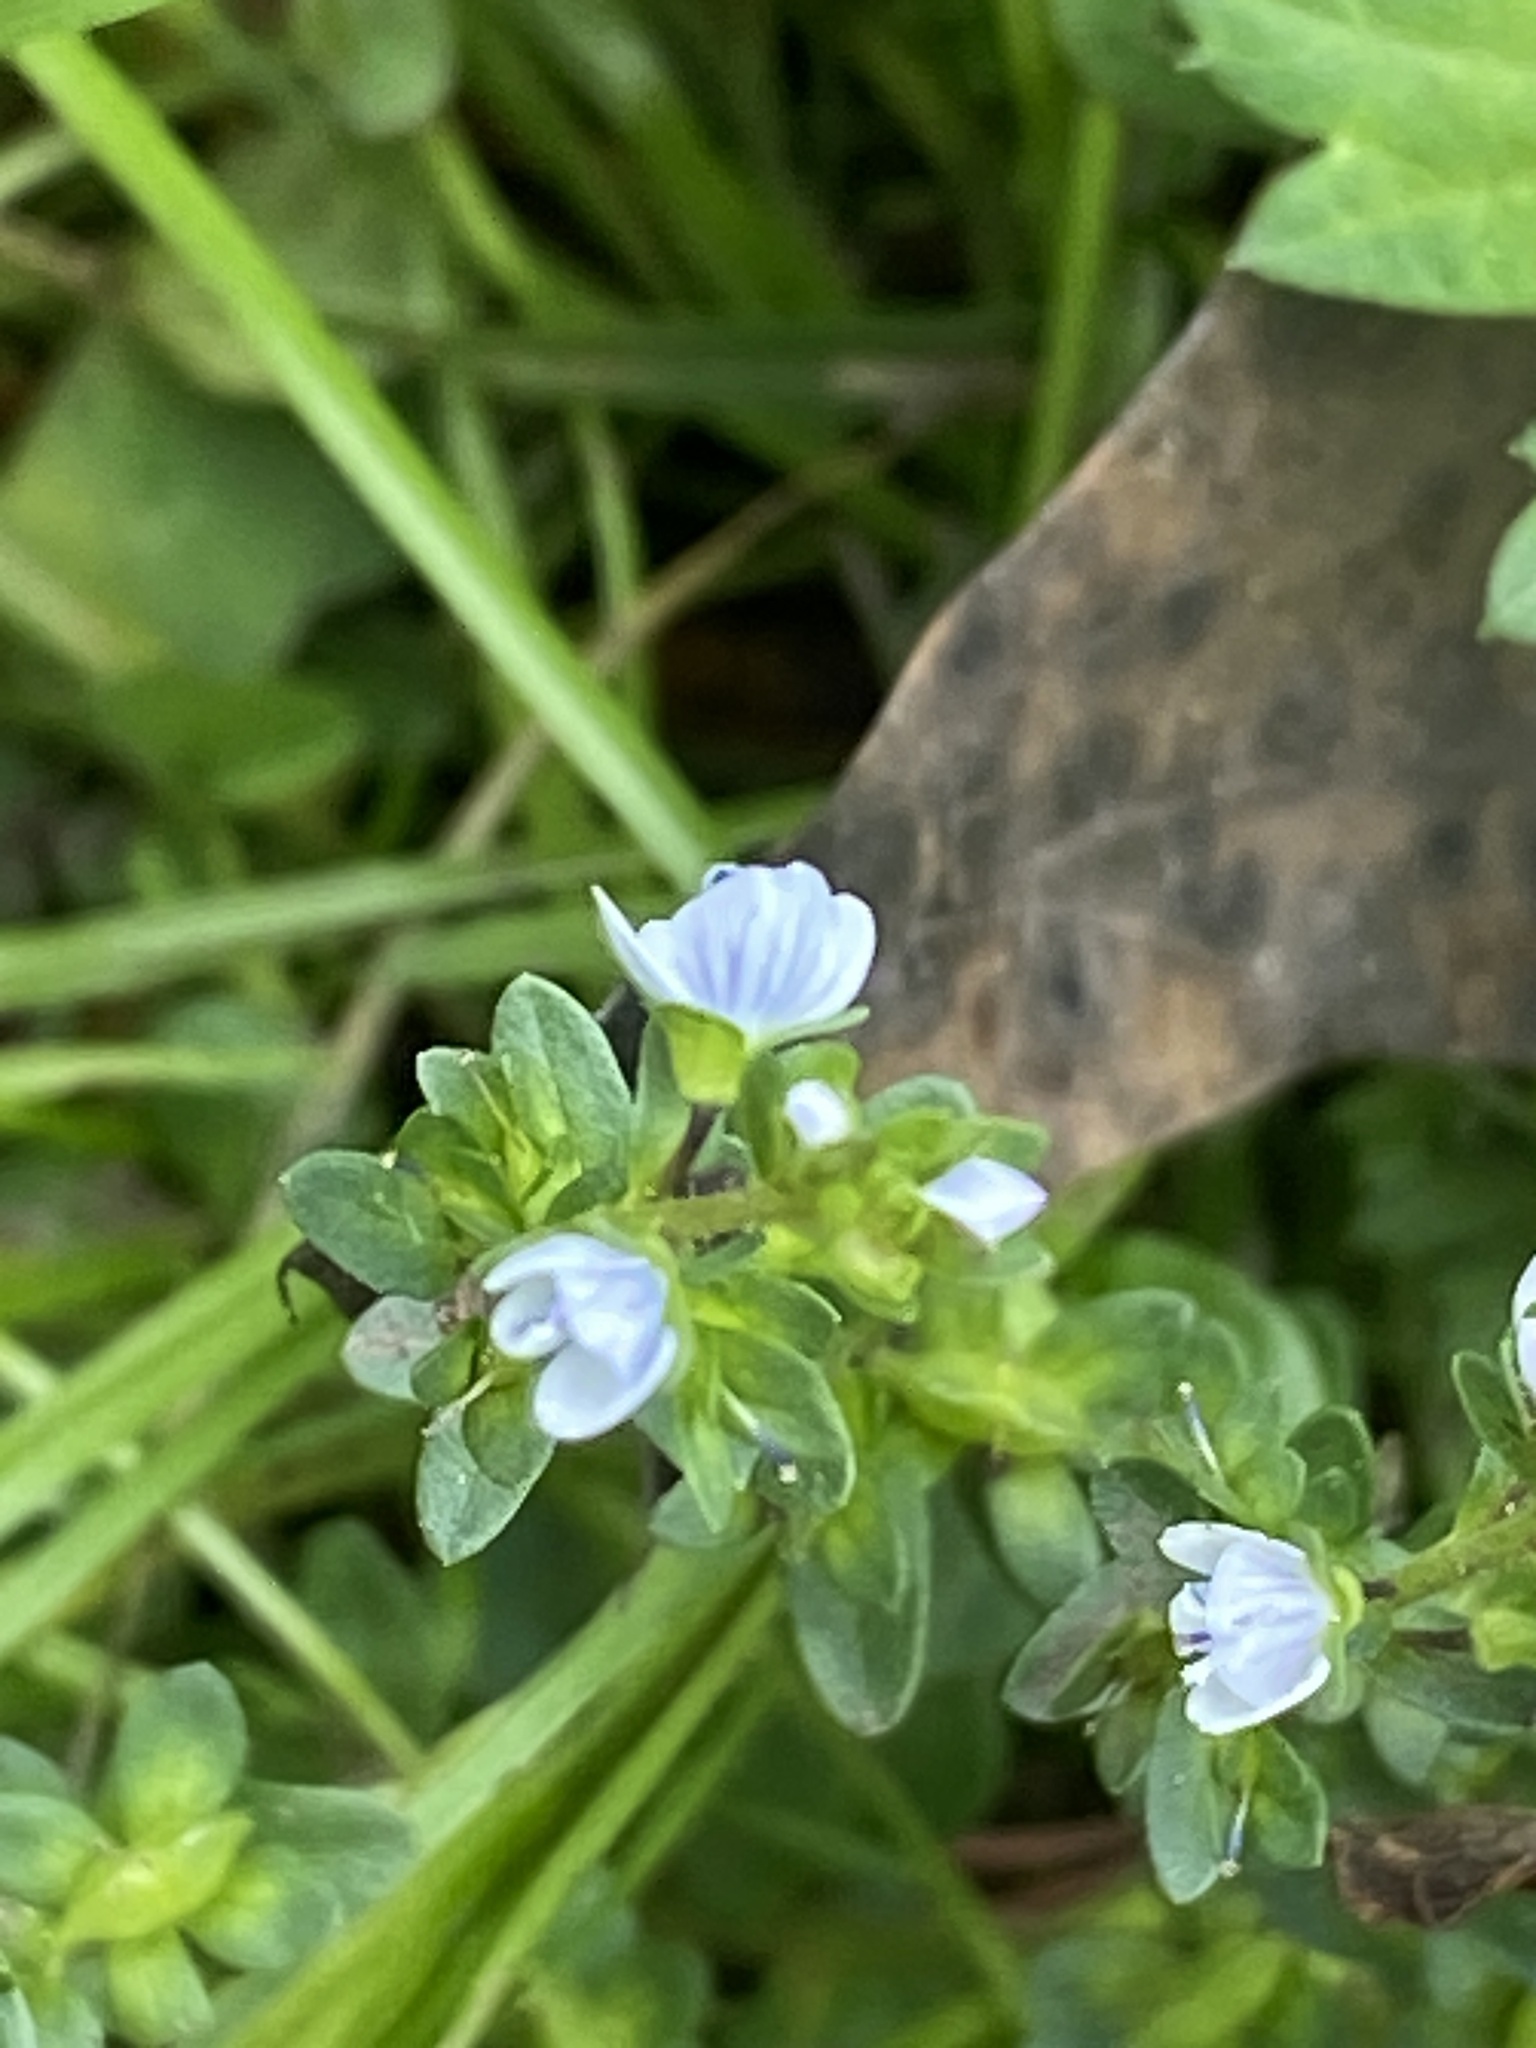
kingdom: Plantae
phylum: Tracheophyta
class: Magnoliopsida
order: Lamiales
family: Plantaginaceae
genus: Veronica
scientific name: Veronica serpyllifolia
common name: Thyme-leaved speedwell
